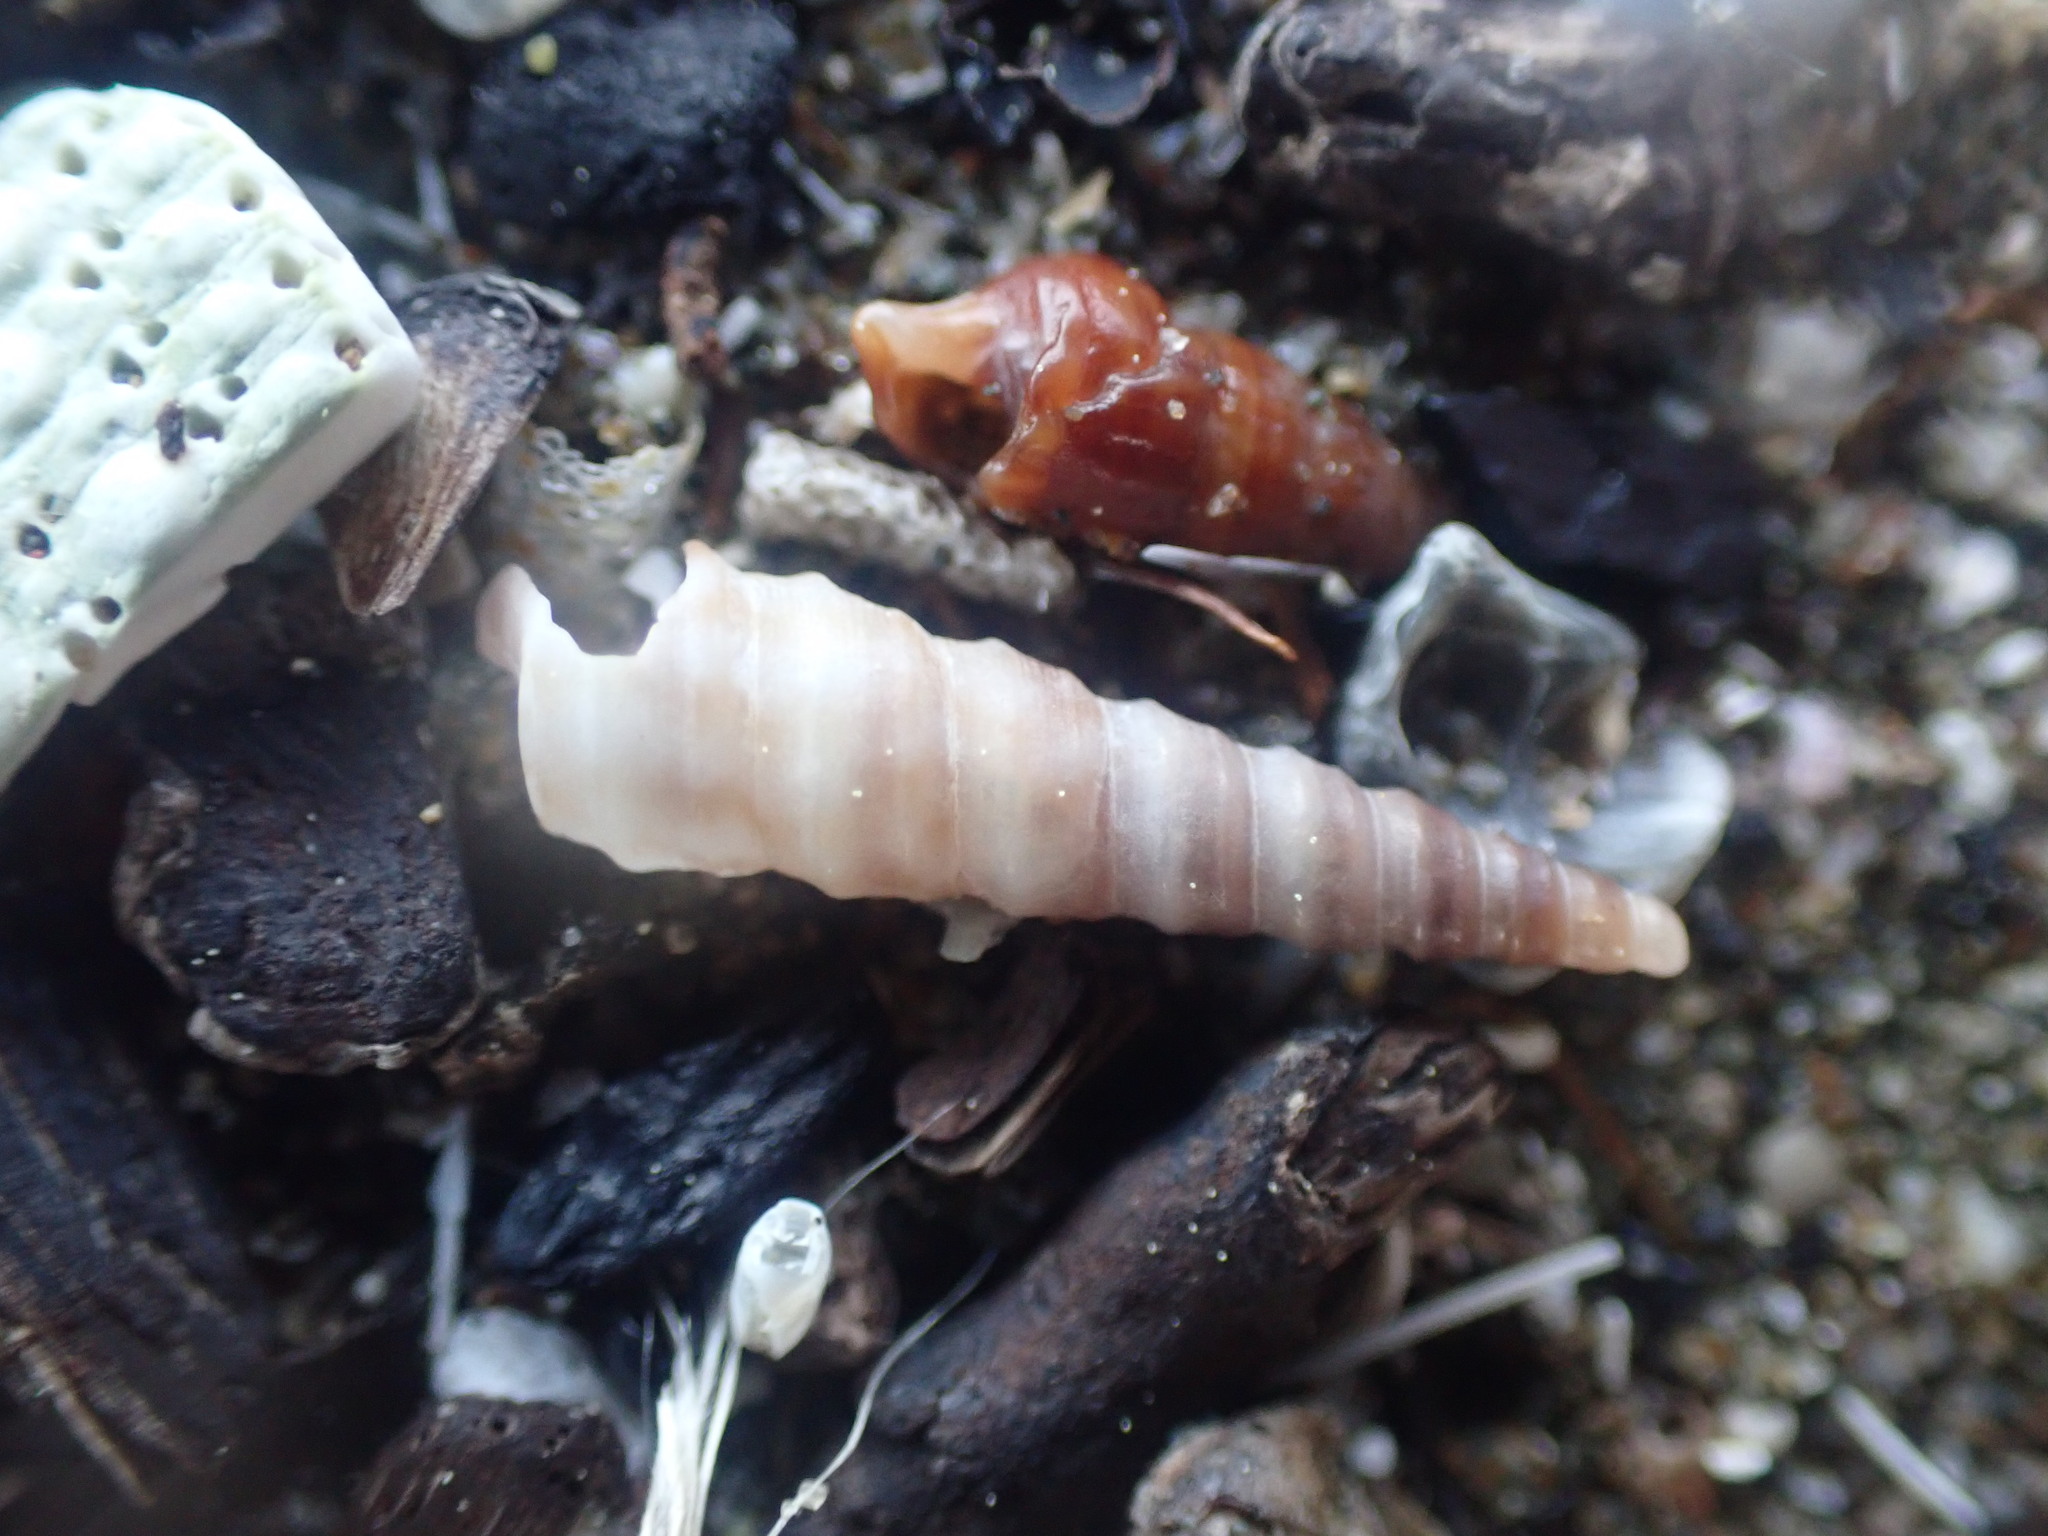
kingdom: Animalia
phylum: Mollusca
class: Gastropoda
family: Turritellidae
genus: Stiracolpus
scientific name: Stiracolpus pagoda
